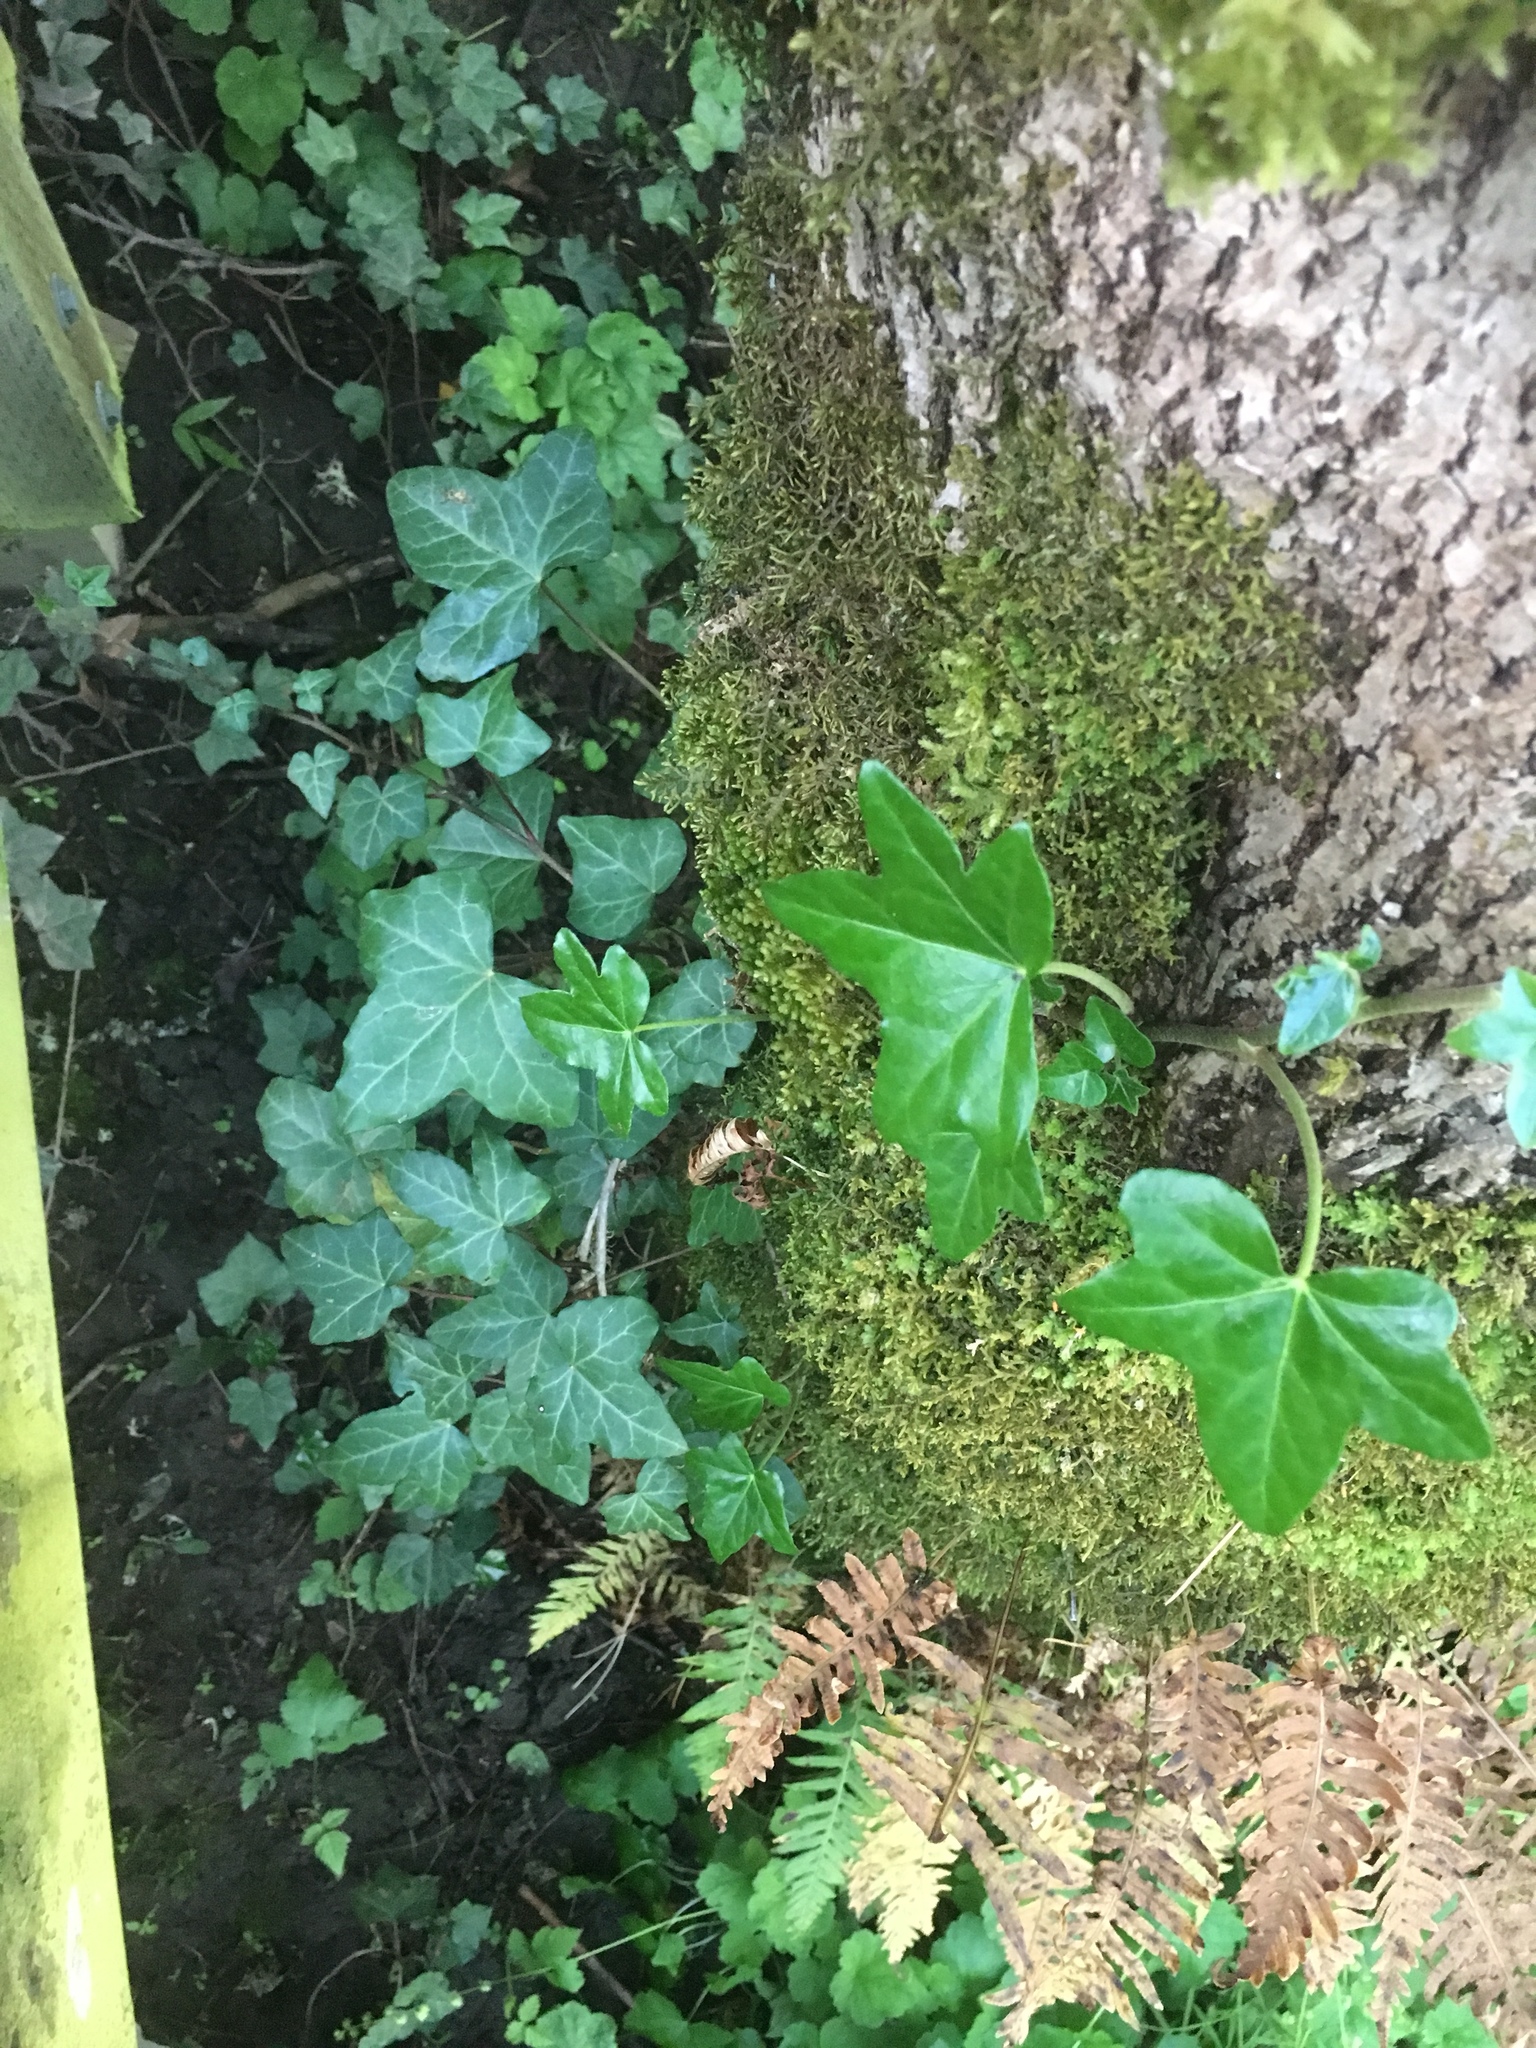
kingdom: Plantae
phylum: Tracheophyta
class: Magnoliopsida
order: Apiales
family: Araliaceae
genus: Hedera
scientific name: Hedera helix
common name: Ivy
